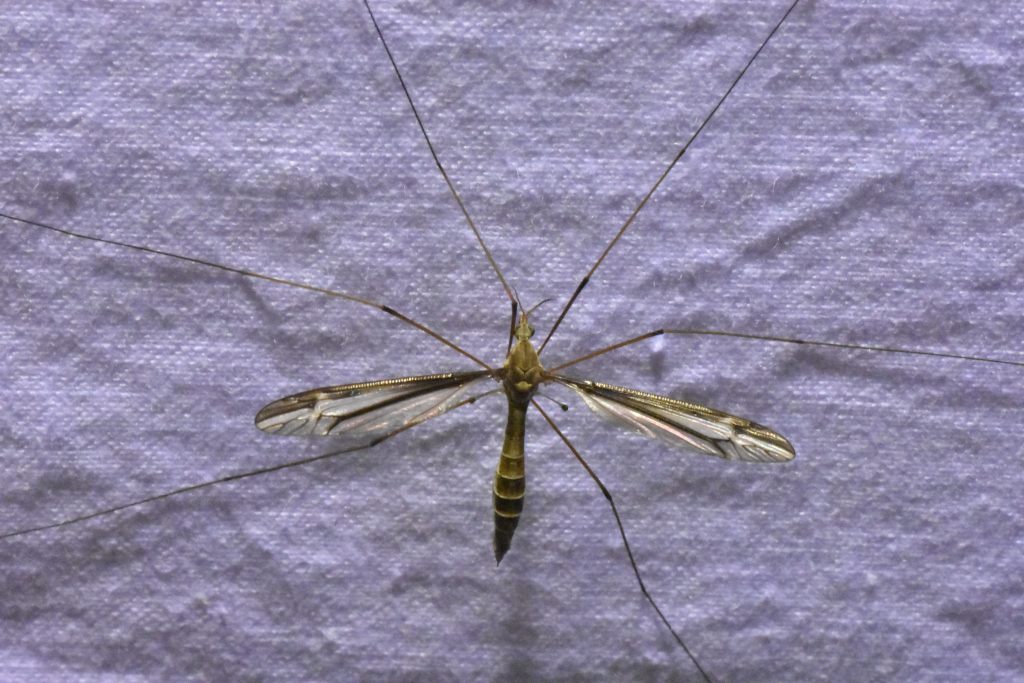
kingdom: Animalia
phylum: Arthropoda
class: Insecta
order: Diptera
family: Tipulidae
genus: Tipula
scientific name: Tipula furca
